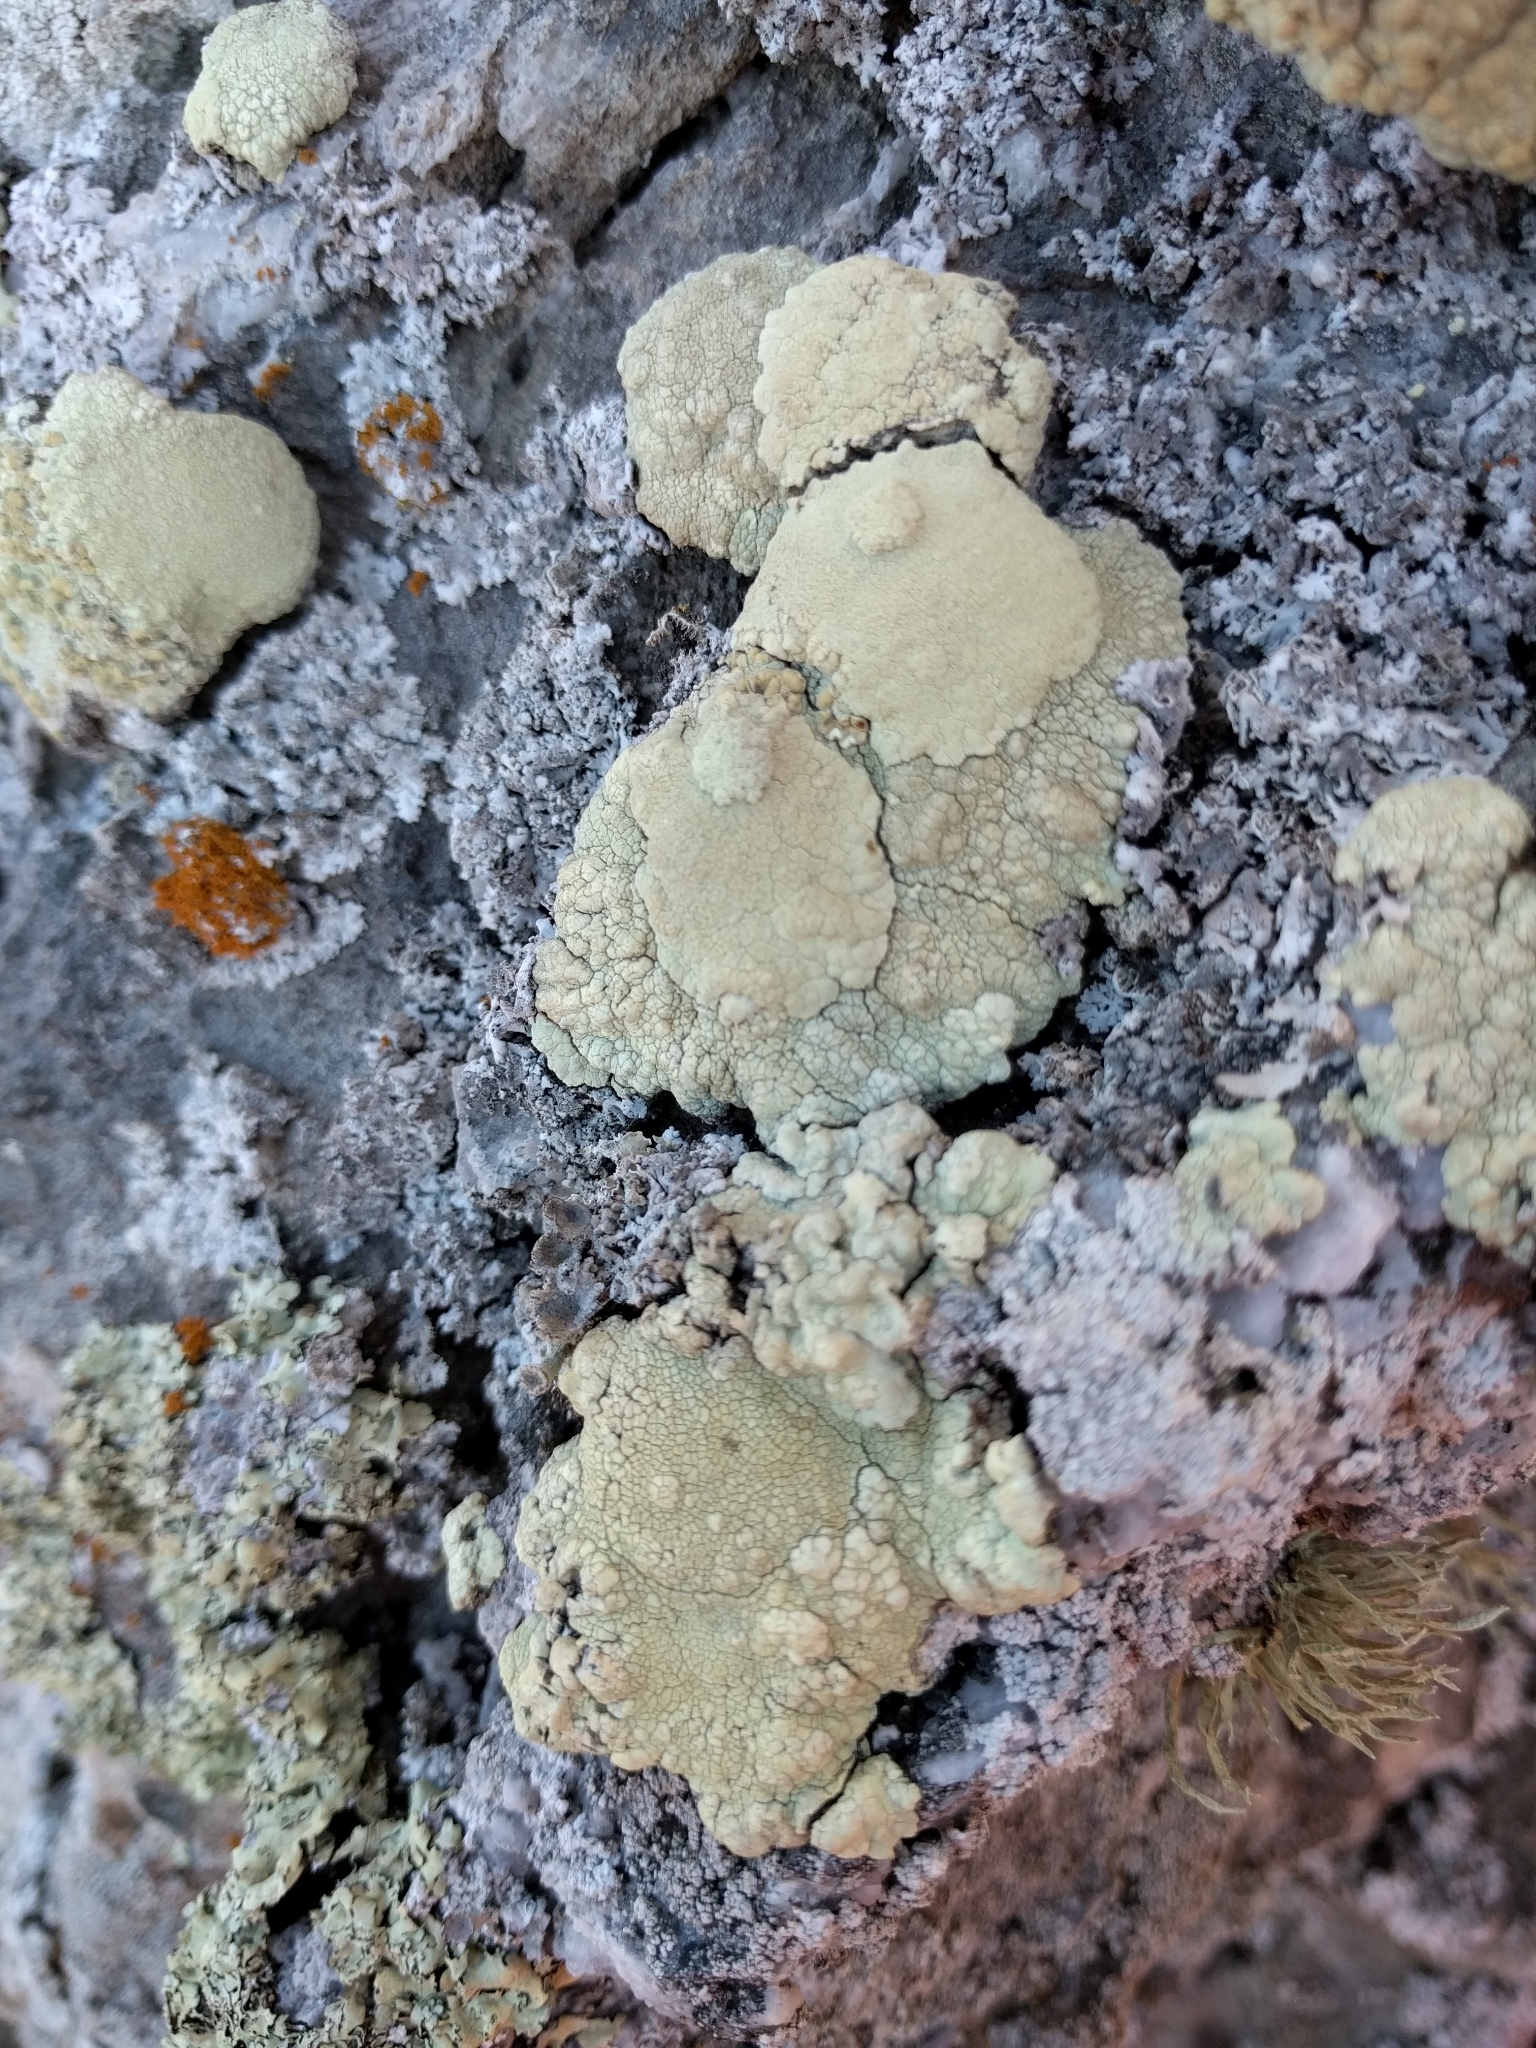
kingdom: Fungi
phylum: Ascomycota
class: Lecanoromycetes
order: Lecanorales
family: Lecanoraceae
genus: Protoparmeliopsis
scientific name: Protoparmeliopsis pinguis
